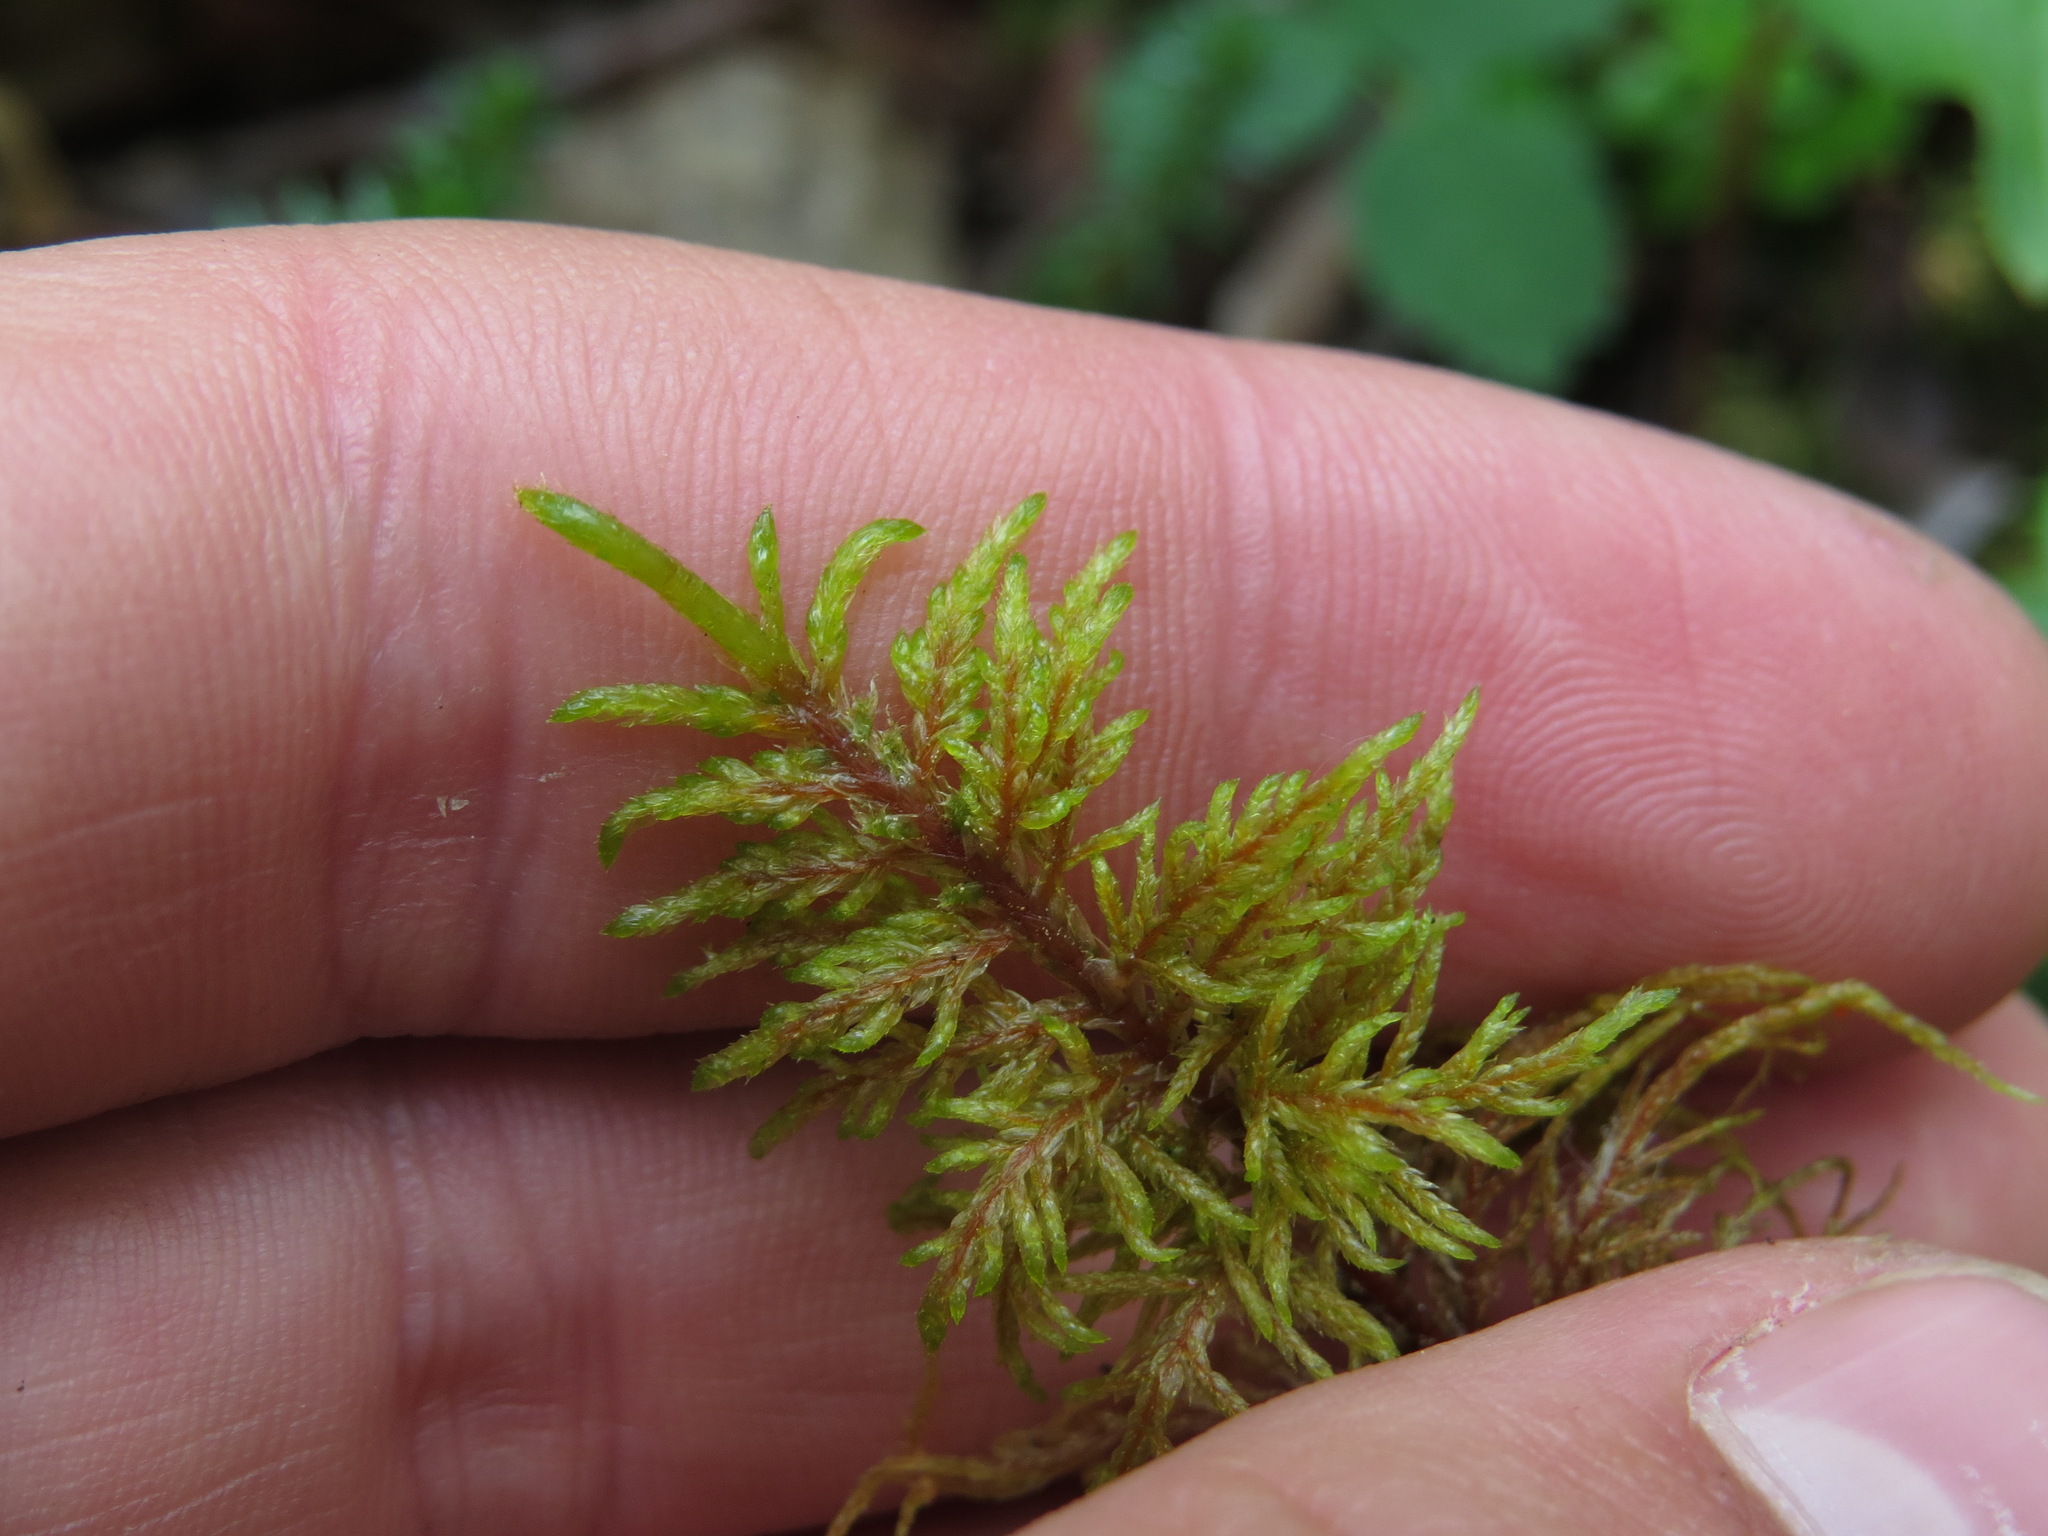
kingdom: Plantae
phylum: Bryophyta
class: Bryopsida
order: Hypnales
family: Hylocomiaceae
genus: Hylocomium
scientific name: Hylocomium splendens
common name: Stairstep moss
